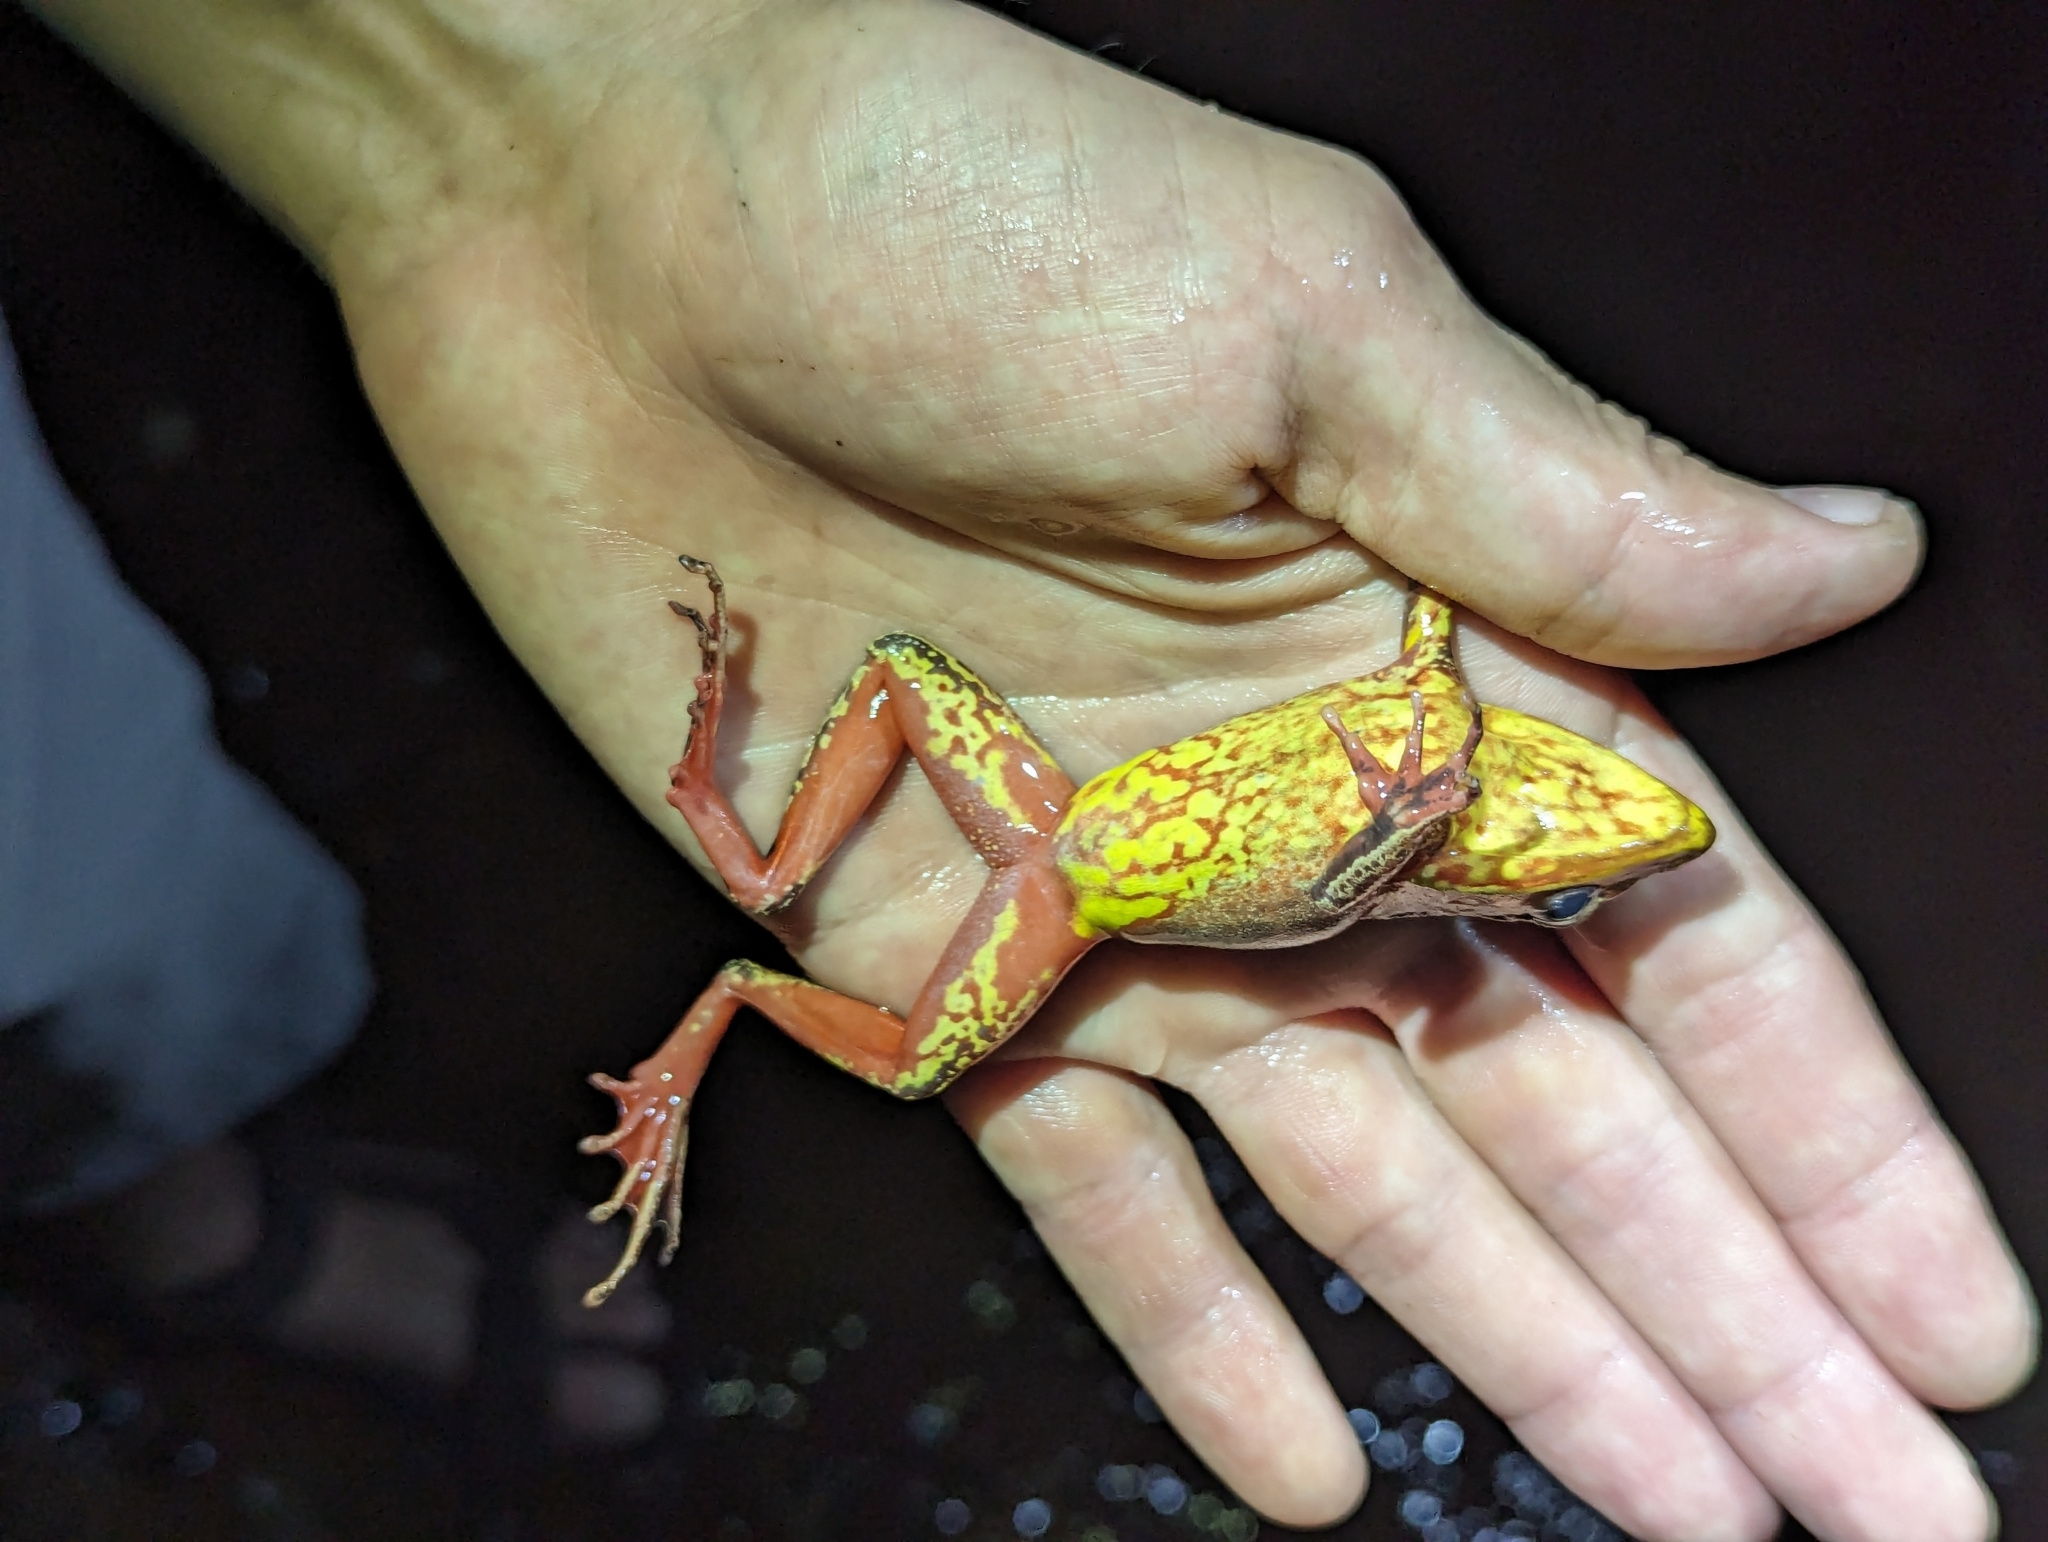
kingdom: Animalia
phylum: Chordata
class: Amphibia
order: Anura
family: Ranidae
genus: Lithobates
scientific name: Lithobates warszewitschii
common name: Warszewitsch's frog
